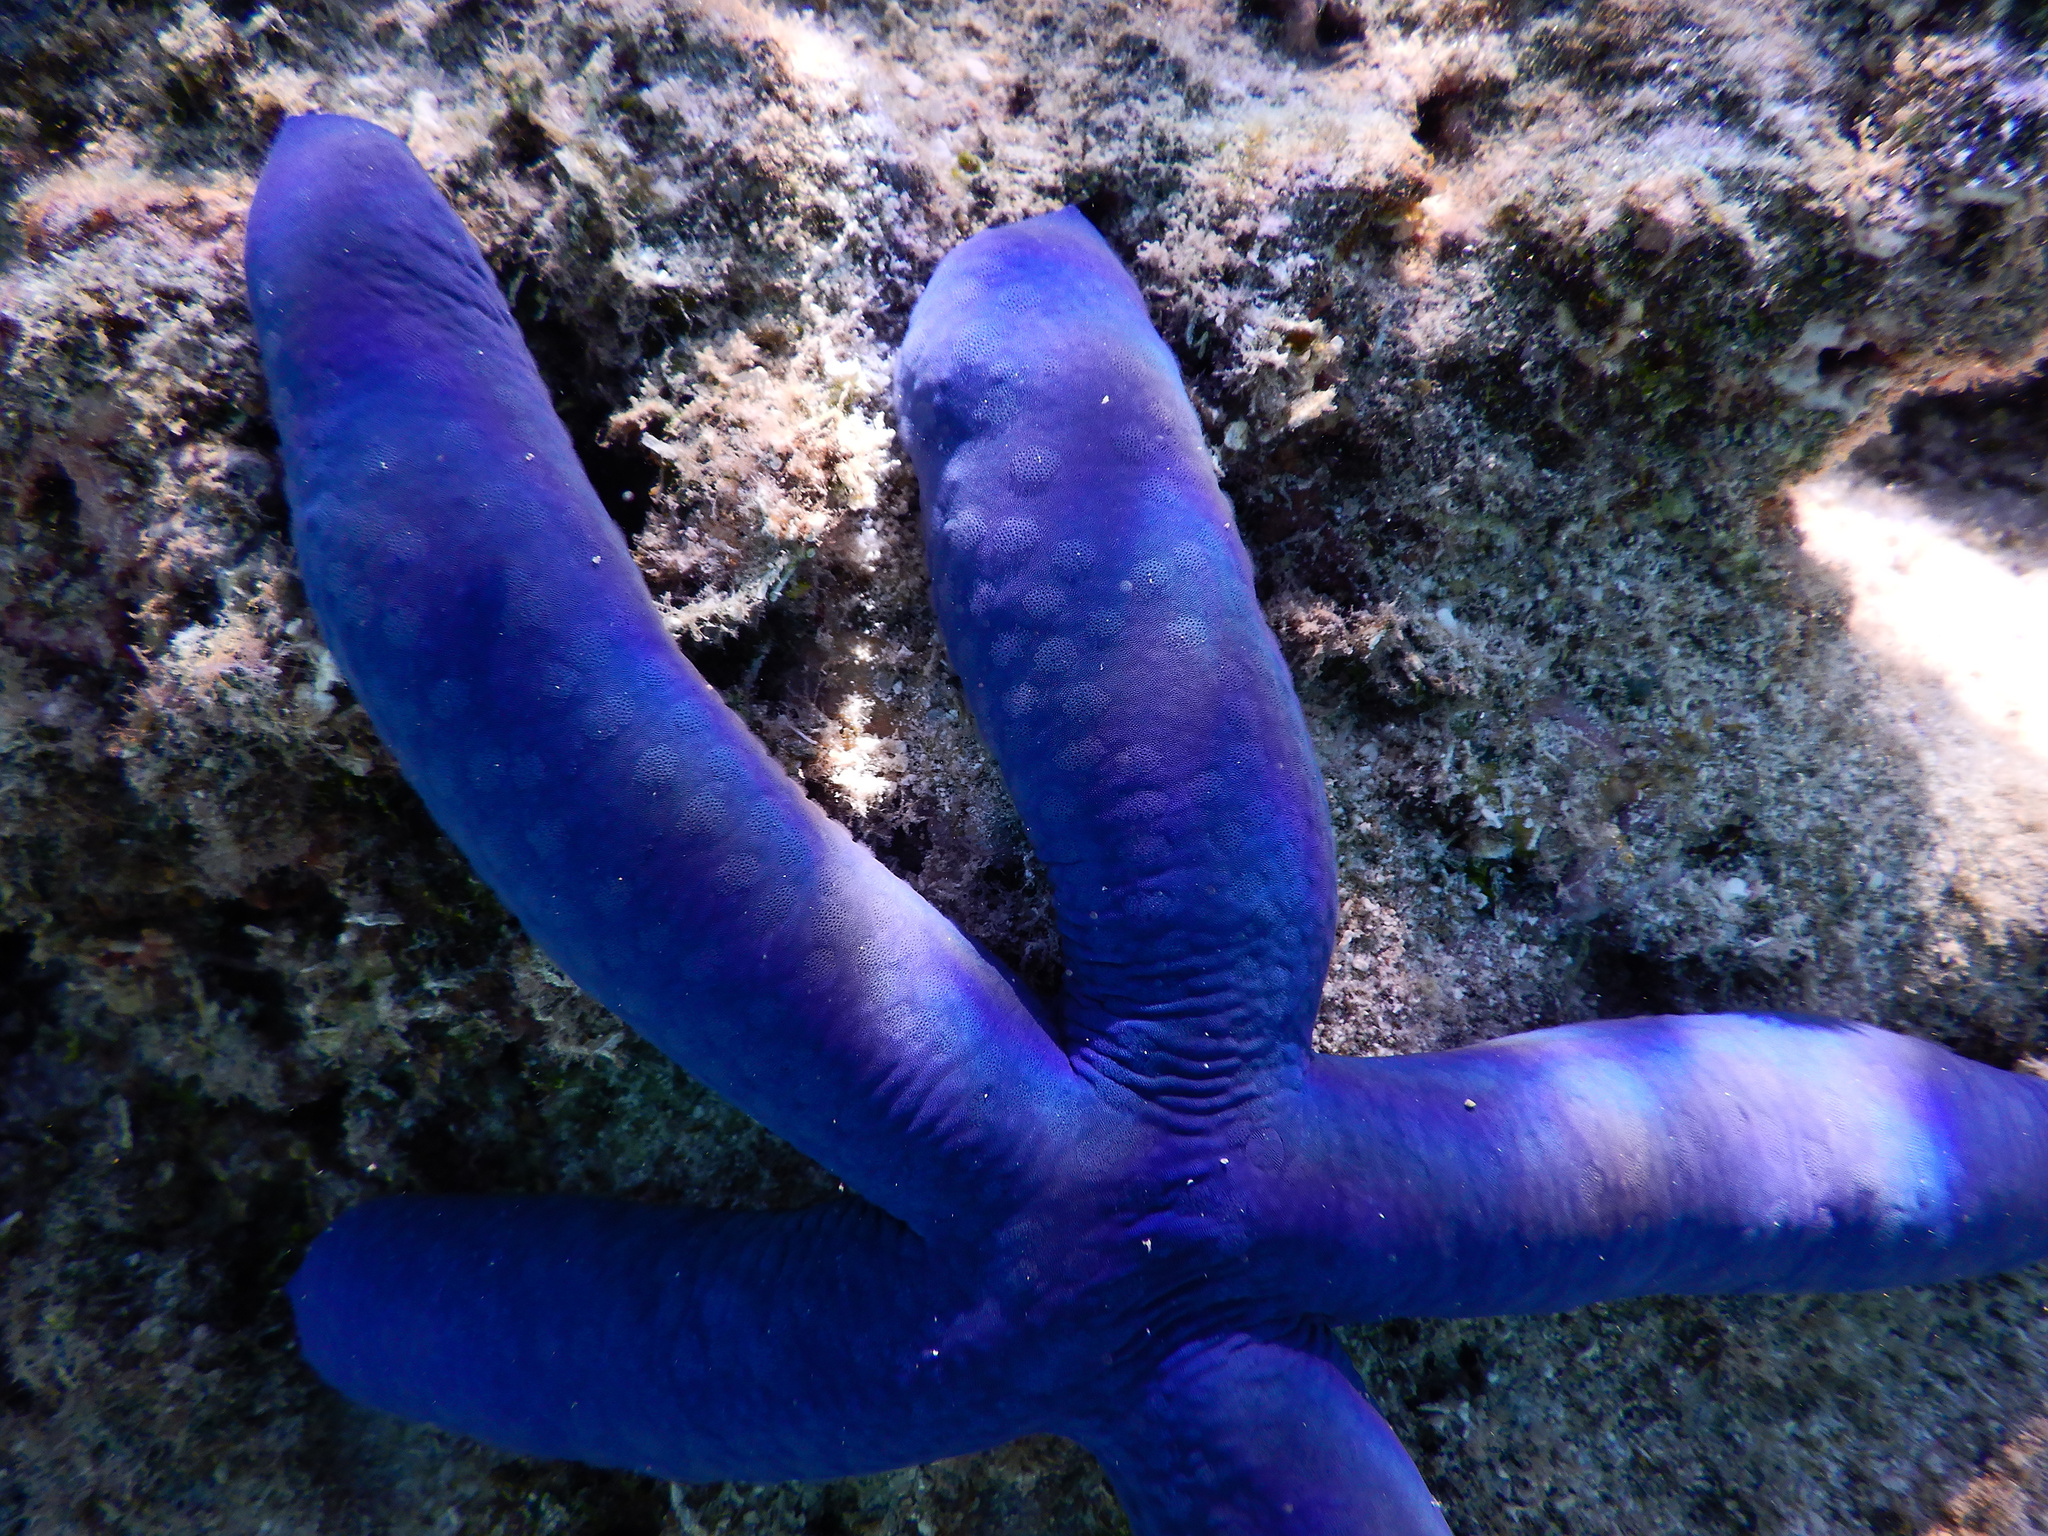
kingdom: Animalia
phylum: Echinodermata
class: Asteroidea
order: Valvatida
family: Ophidiasteridae
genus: Linckia
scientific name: Linckia laevigata
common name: Azure sea star
